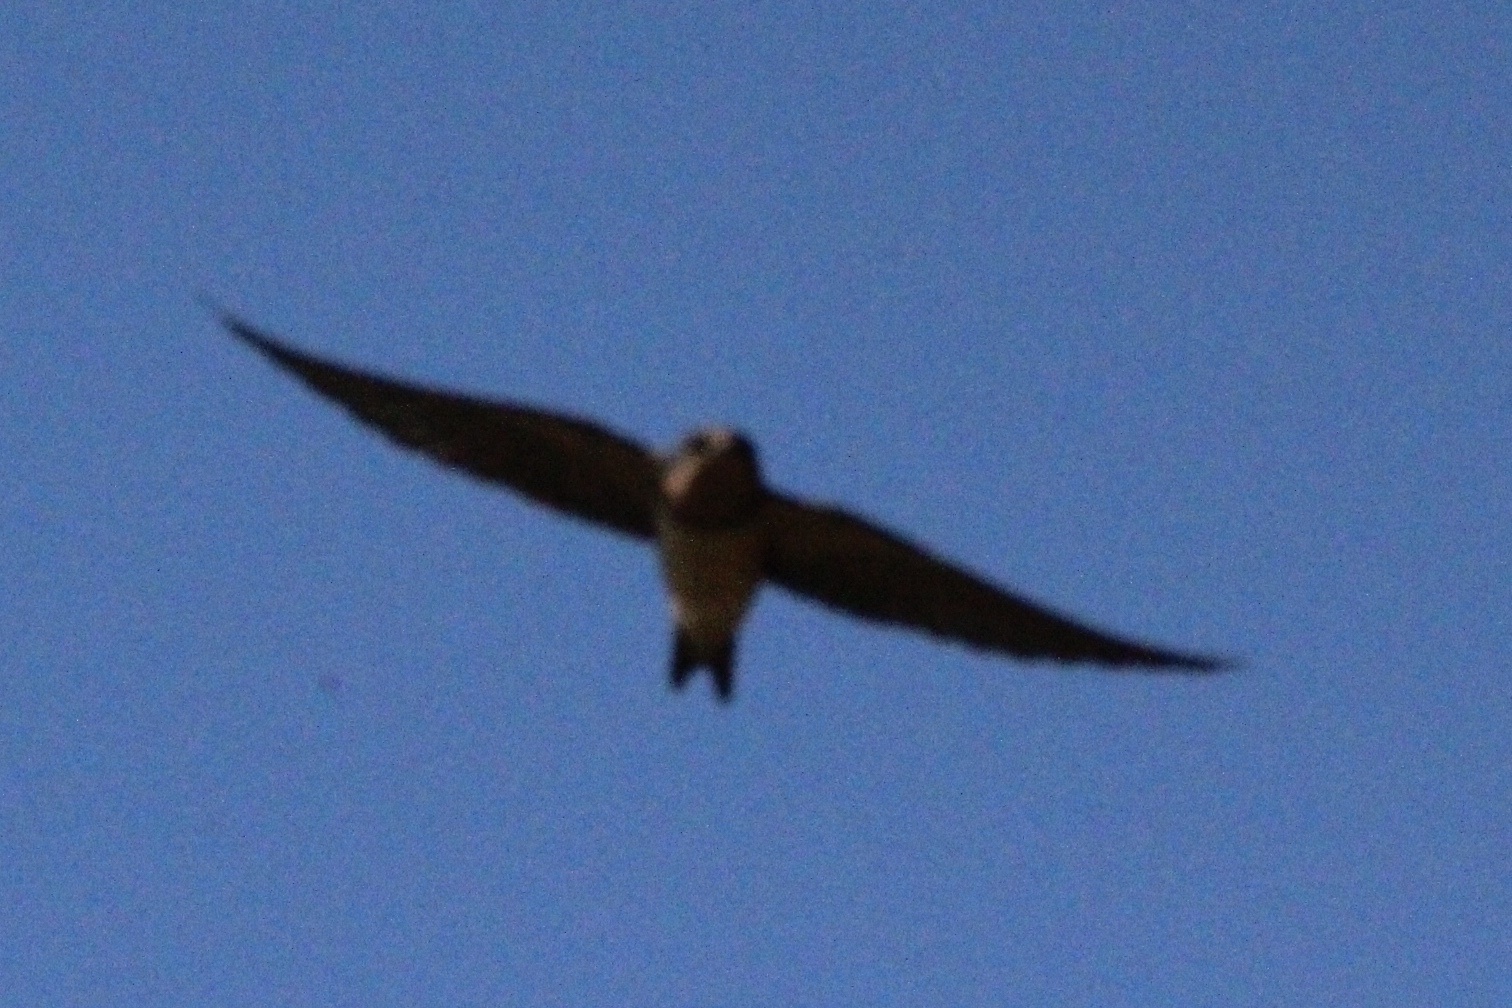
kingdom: Animalia
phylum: Chordata
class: Aves
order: Passeriformes
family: Hirundinidae
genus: Hirundo
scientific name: Hirundo rustica
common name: Barn swallow
